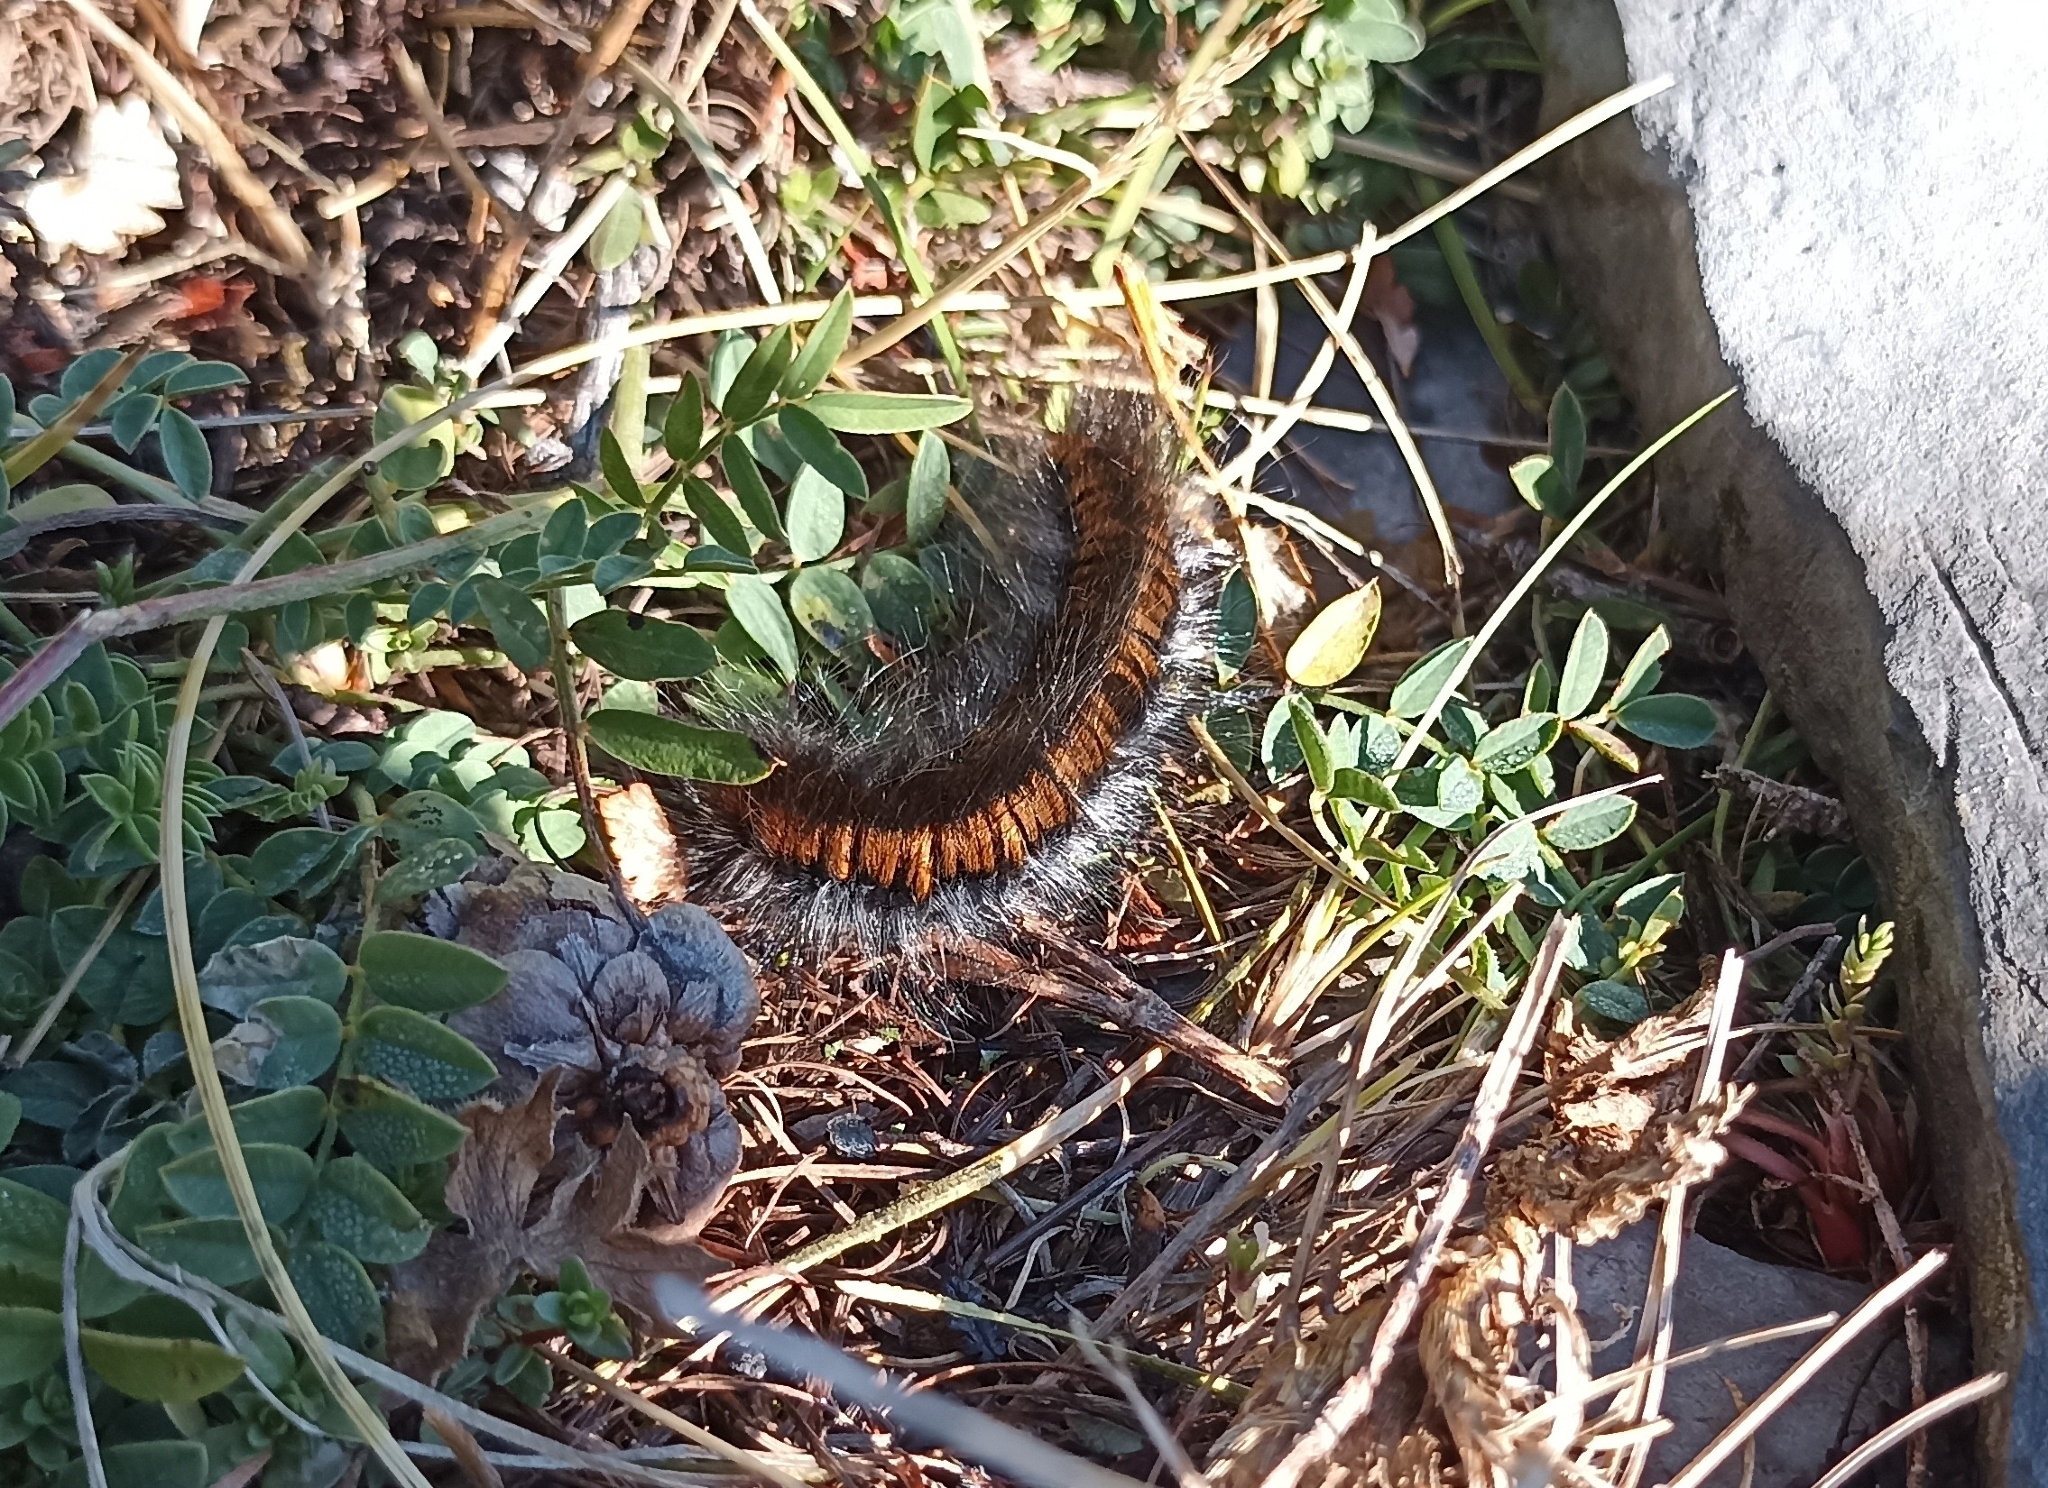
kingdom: Animalia
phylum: Arthropoda
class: Insecta
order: Lepidoptera
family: Lasiocampidae
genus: Macrothylacia
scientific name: Macrothylacia rubi
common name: Fox moth
